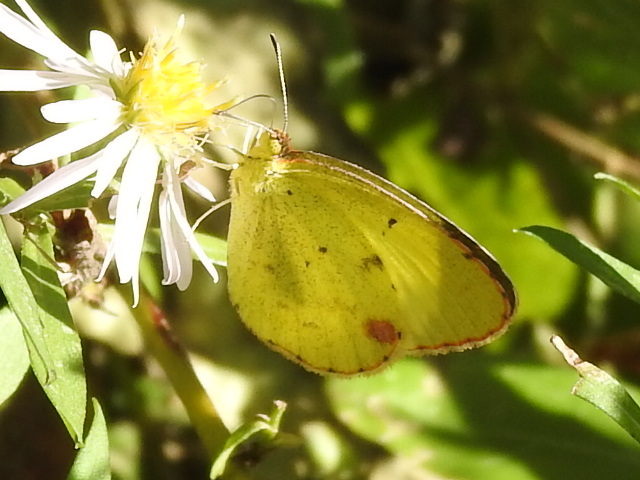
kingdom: Animalia
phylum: Arthropoda
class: Insecta
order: Lepidoptera
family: Pieridae
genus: Pyrisitia
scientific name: Pyrisitia lisa
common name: Little yellow
